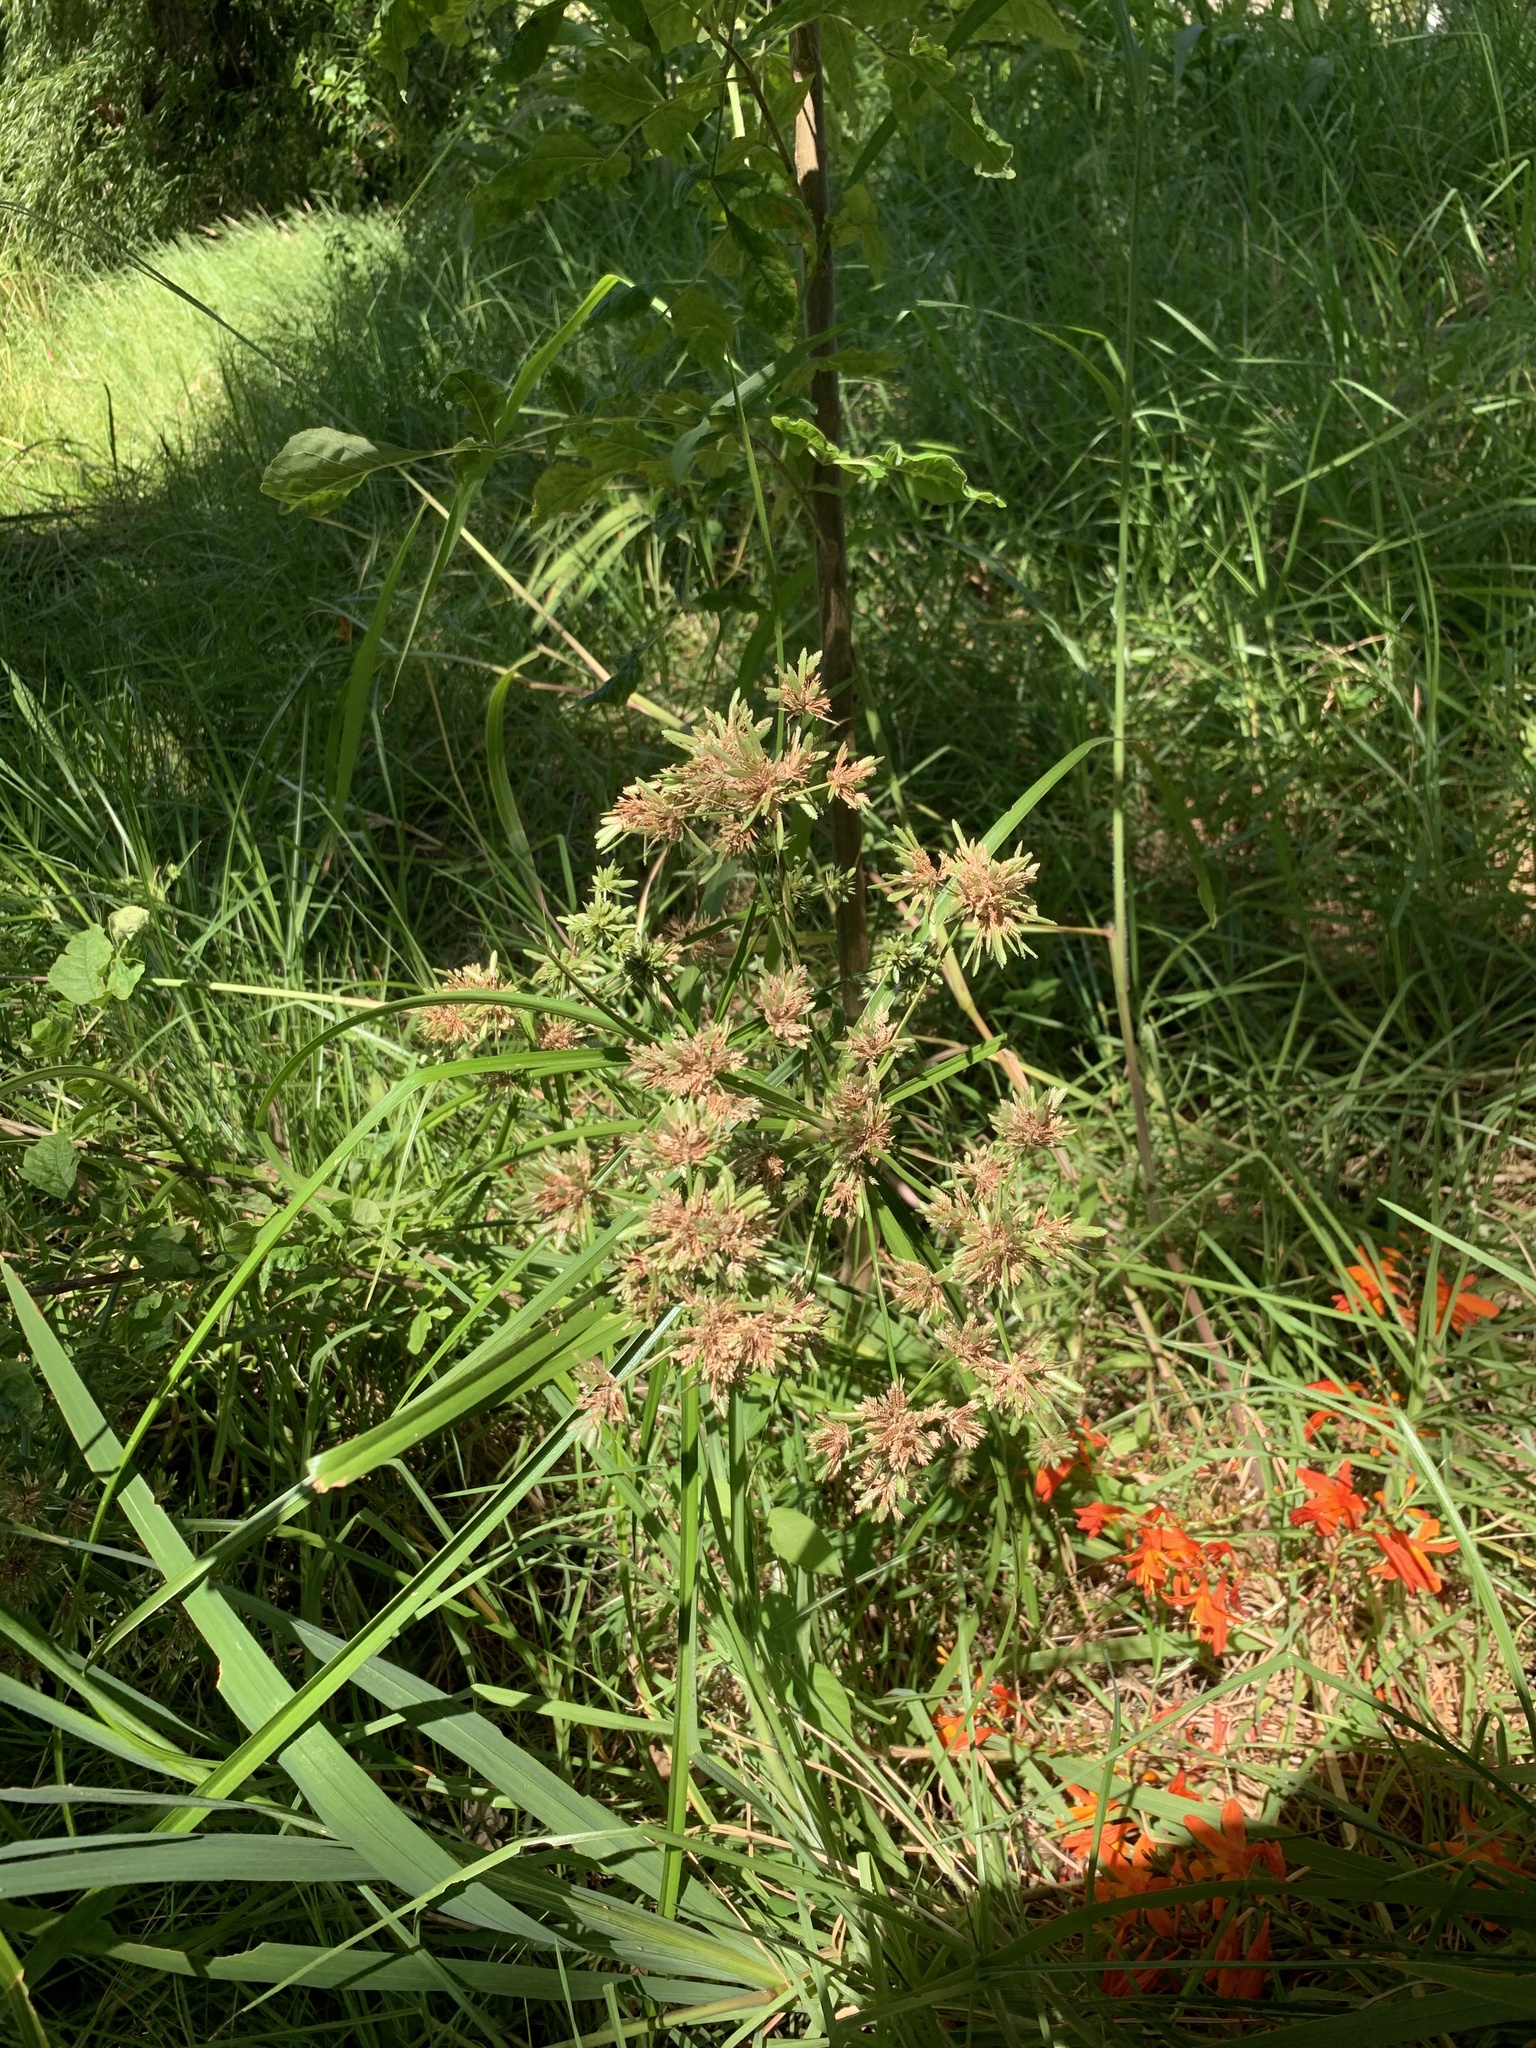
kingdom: Plantae
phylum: Tracheophyta
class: Liliopsida
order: Poales
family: Cyperaceae
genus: Cyperus
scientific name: Cyperus eragrostis
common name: Tall flatsedge
